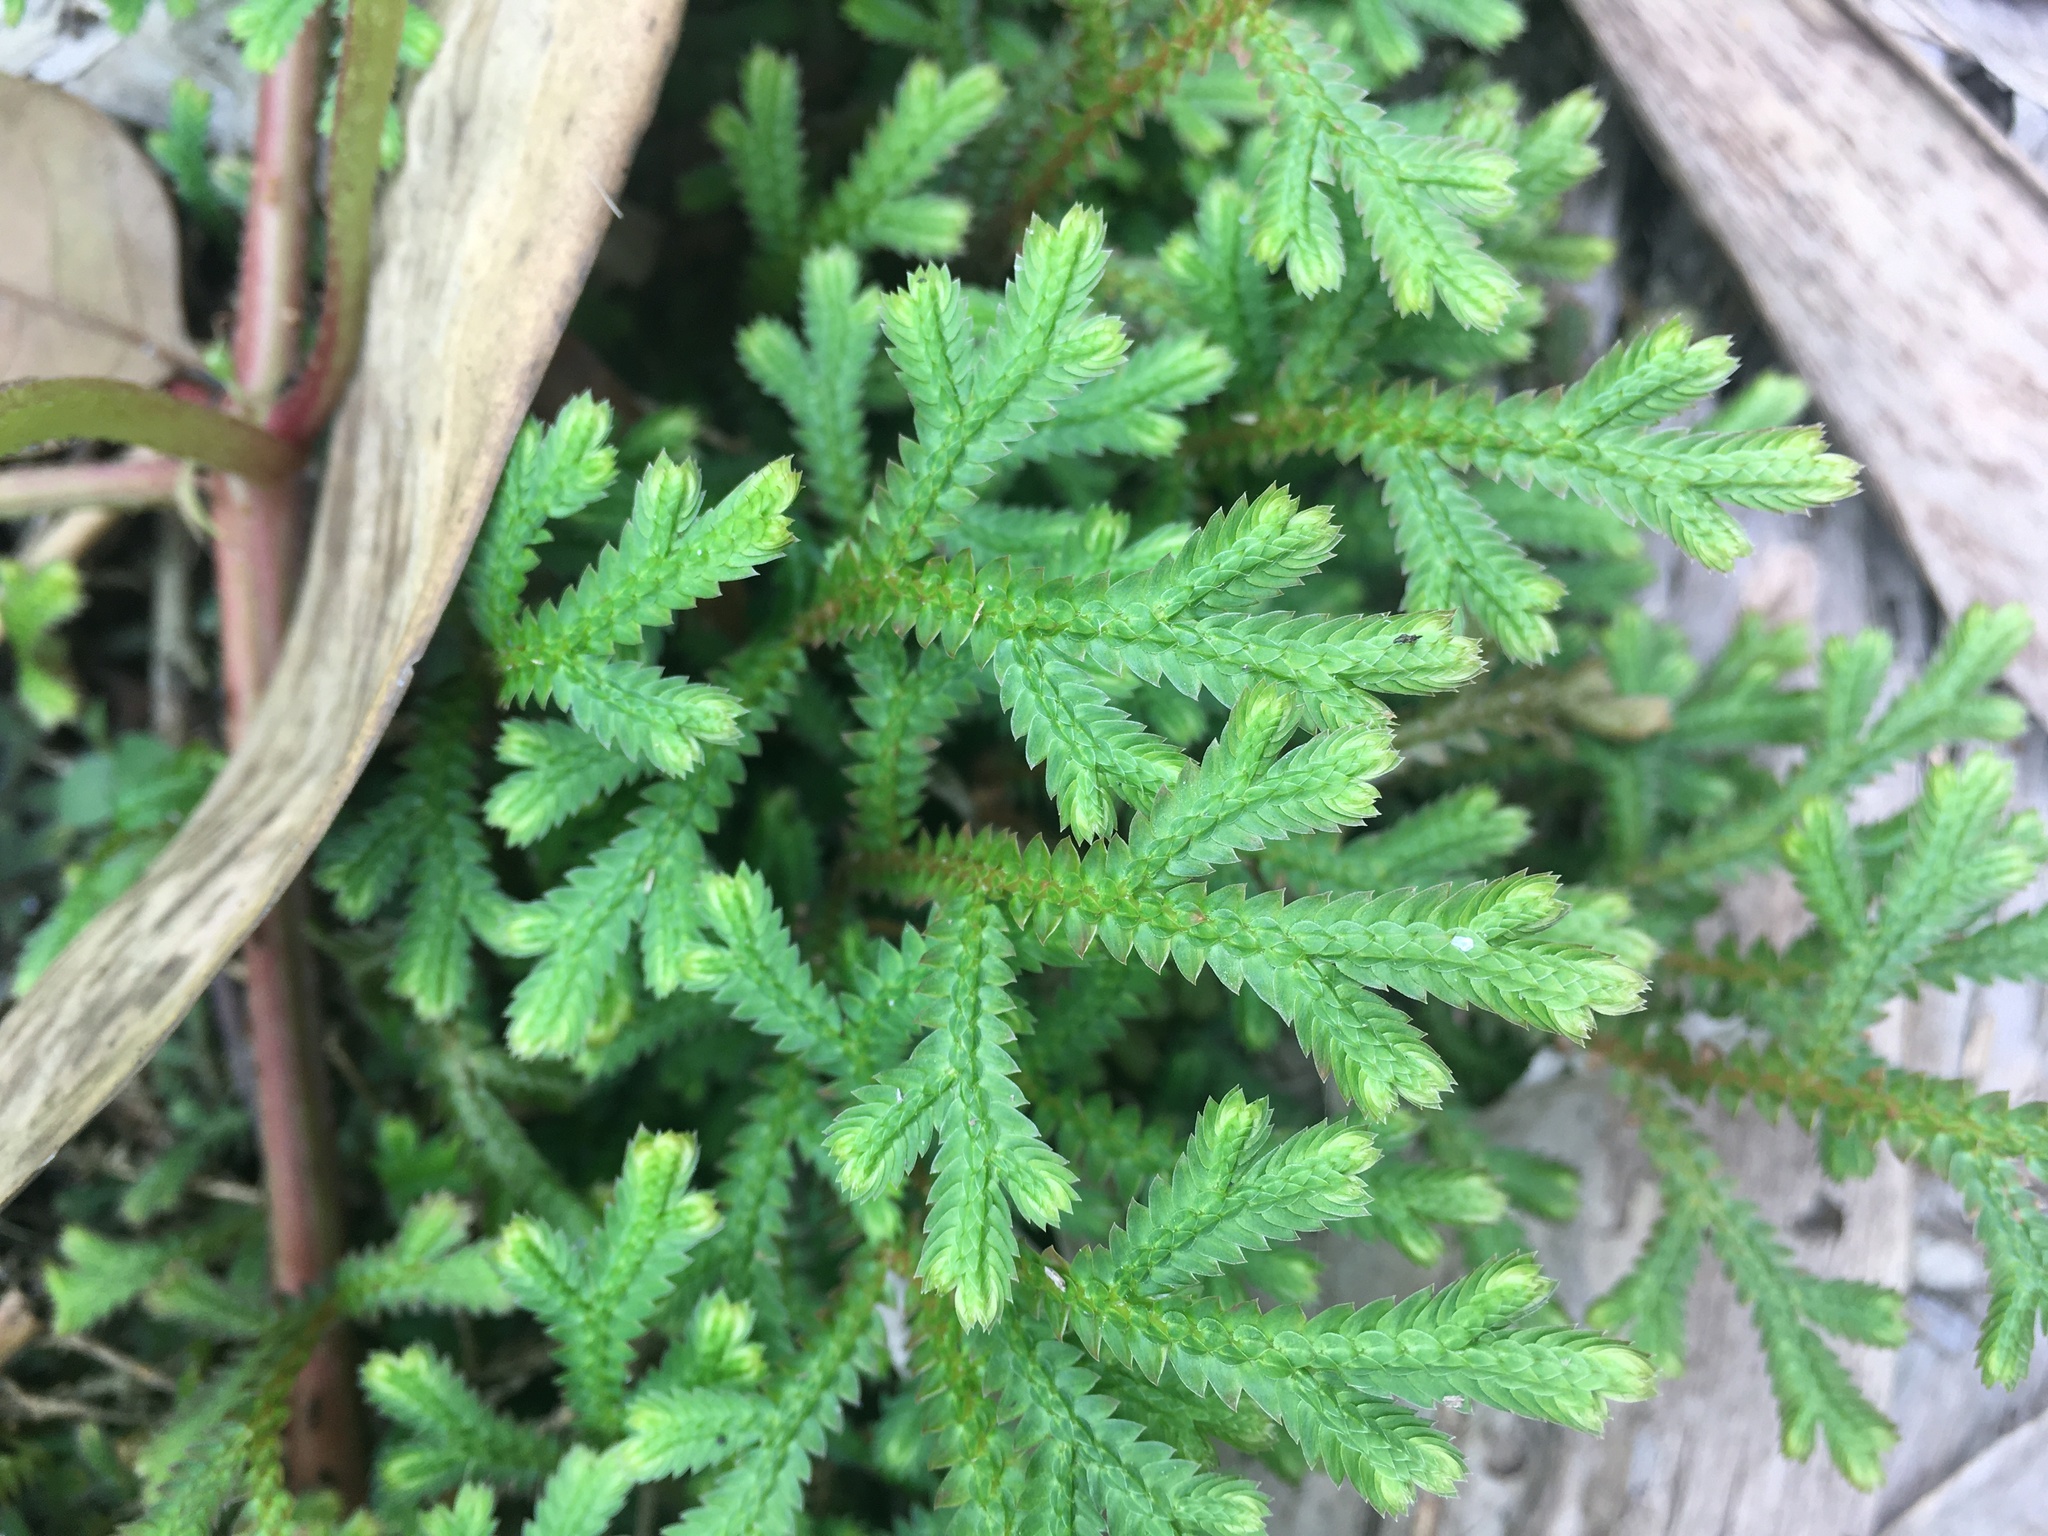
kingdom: Plantae
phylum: Tracheophyta
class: Lycopodiopsida
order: Selaginellales
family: Selaginellaceae
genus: Selaginella
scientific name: Selaginella repanda
